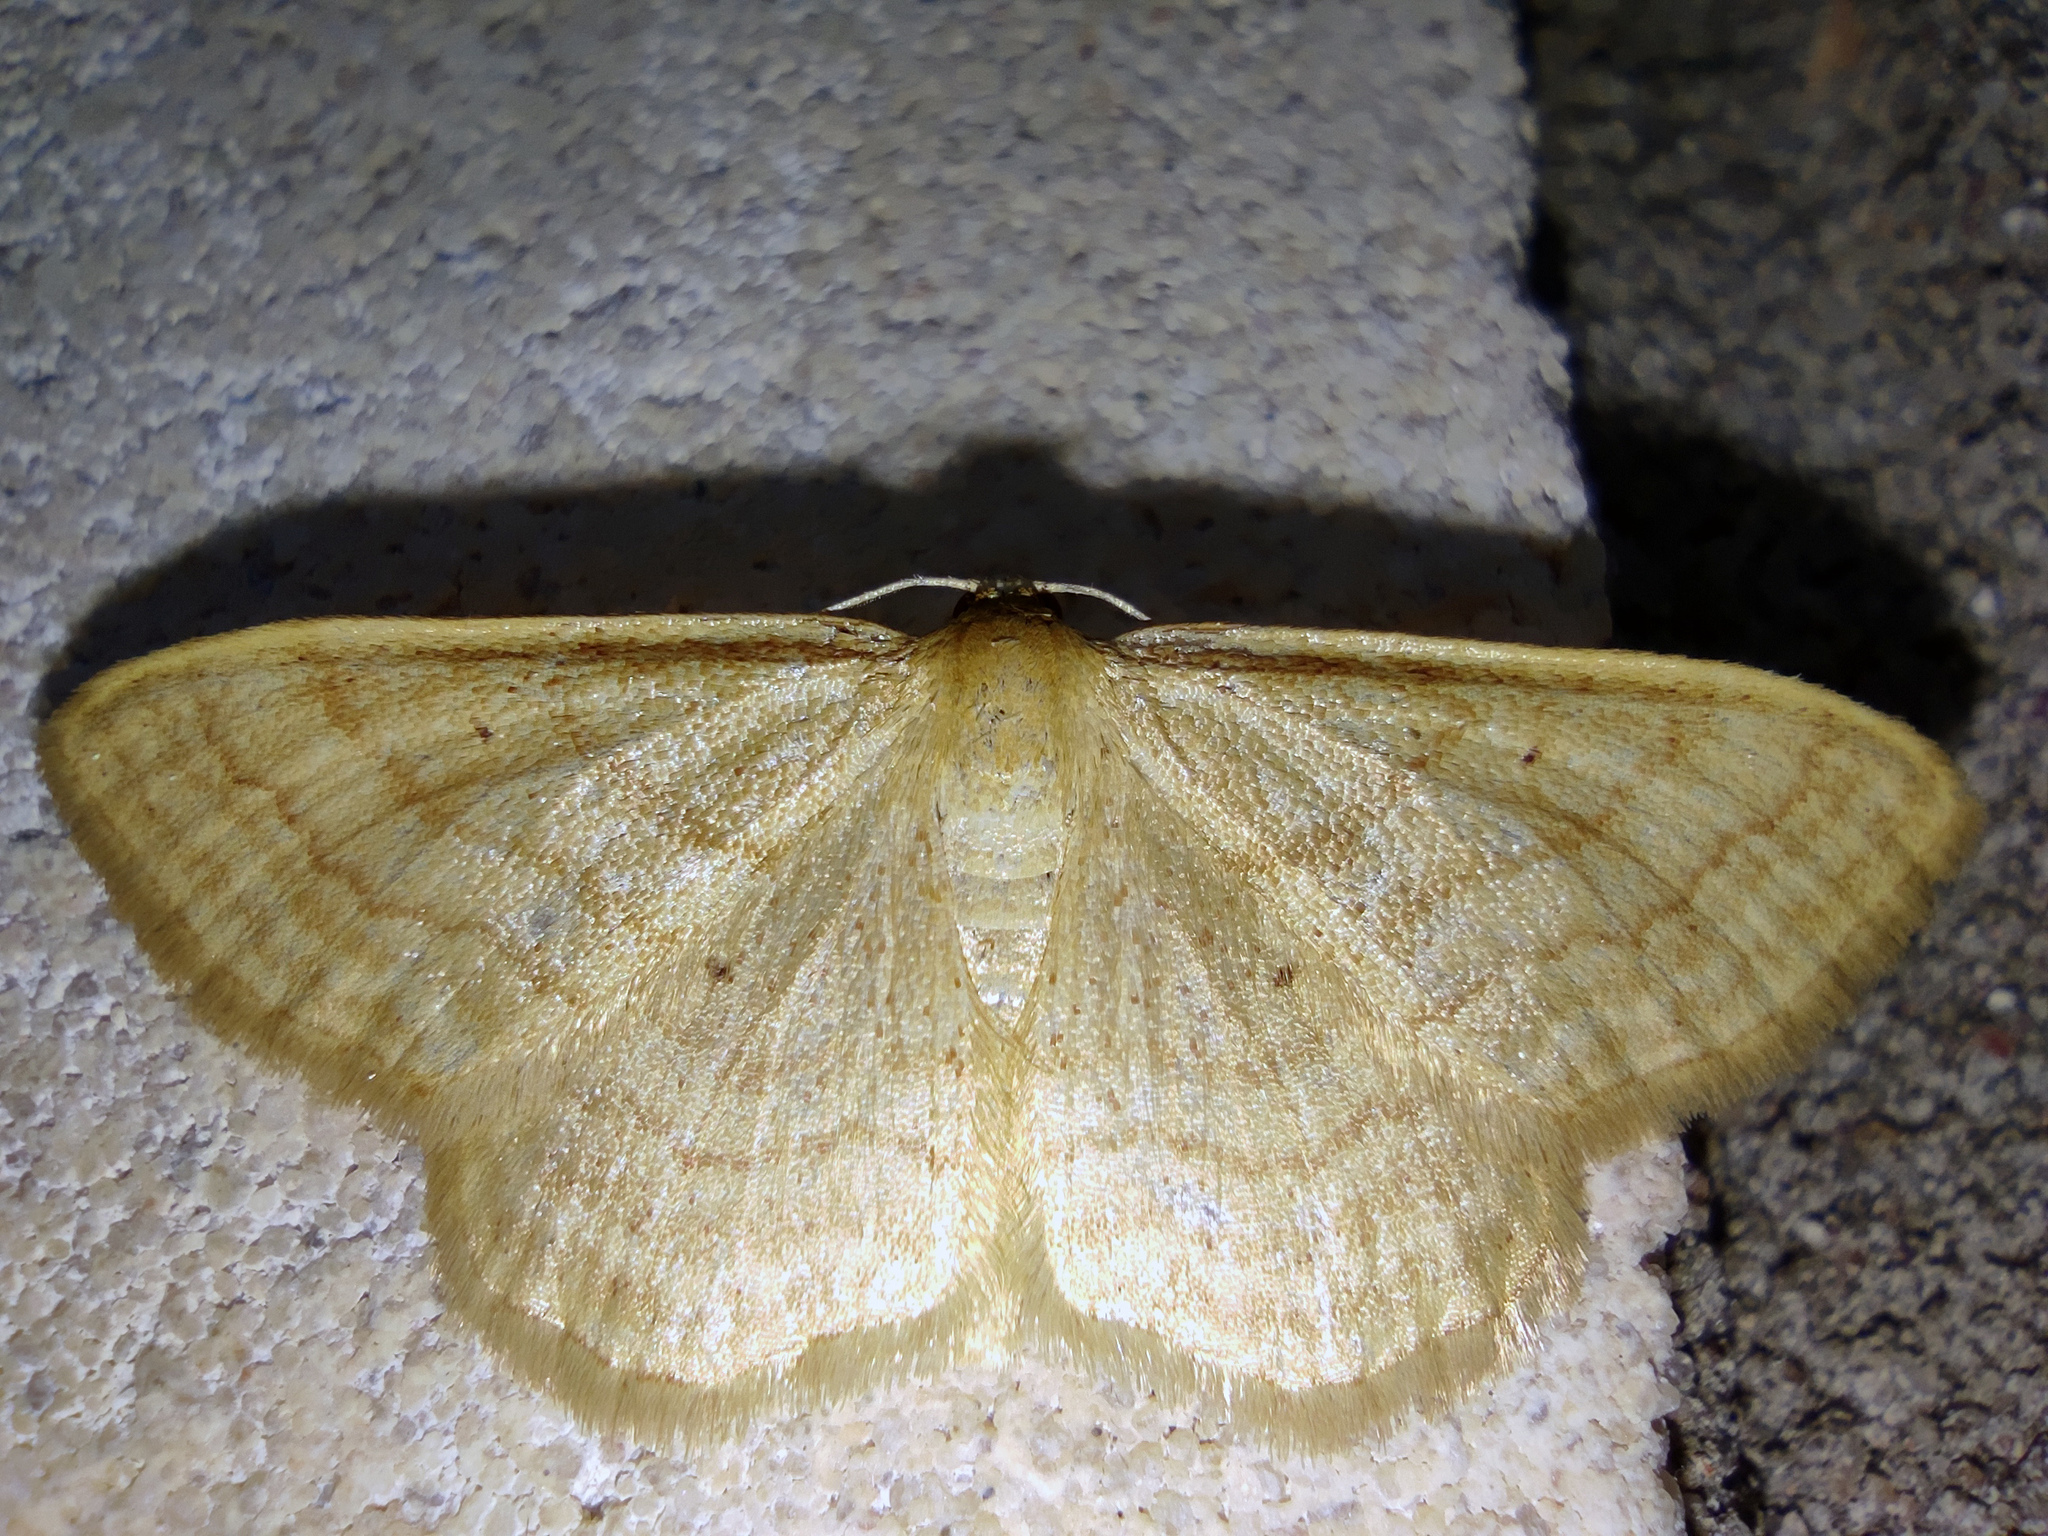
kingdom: Animalia
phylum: Arthropoda
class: Insecta
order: Lepidoptera
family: Geometridae
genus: Idaea
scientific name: Idaea rufaria
